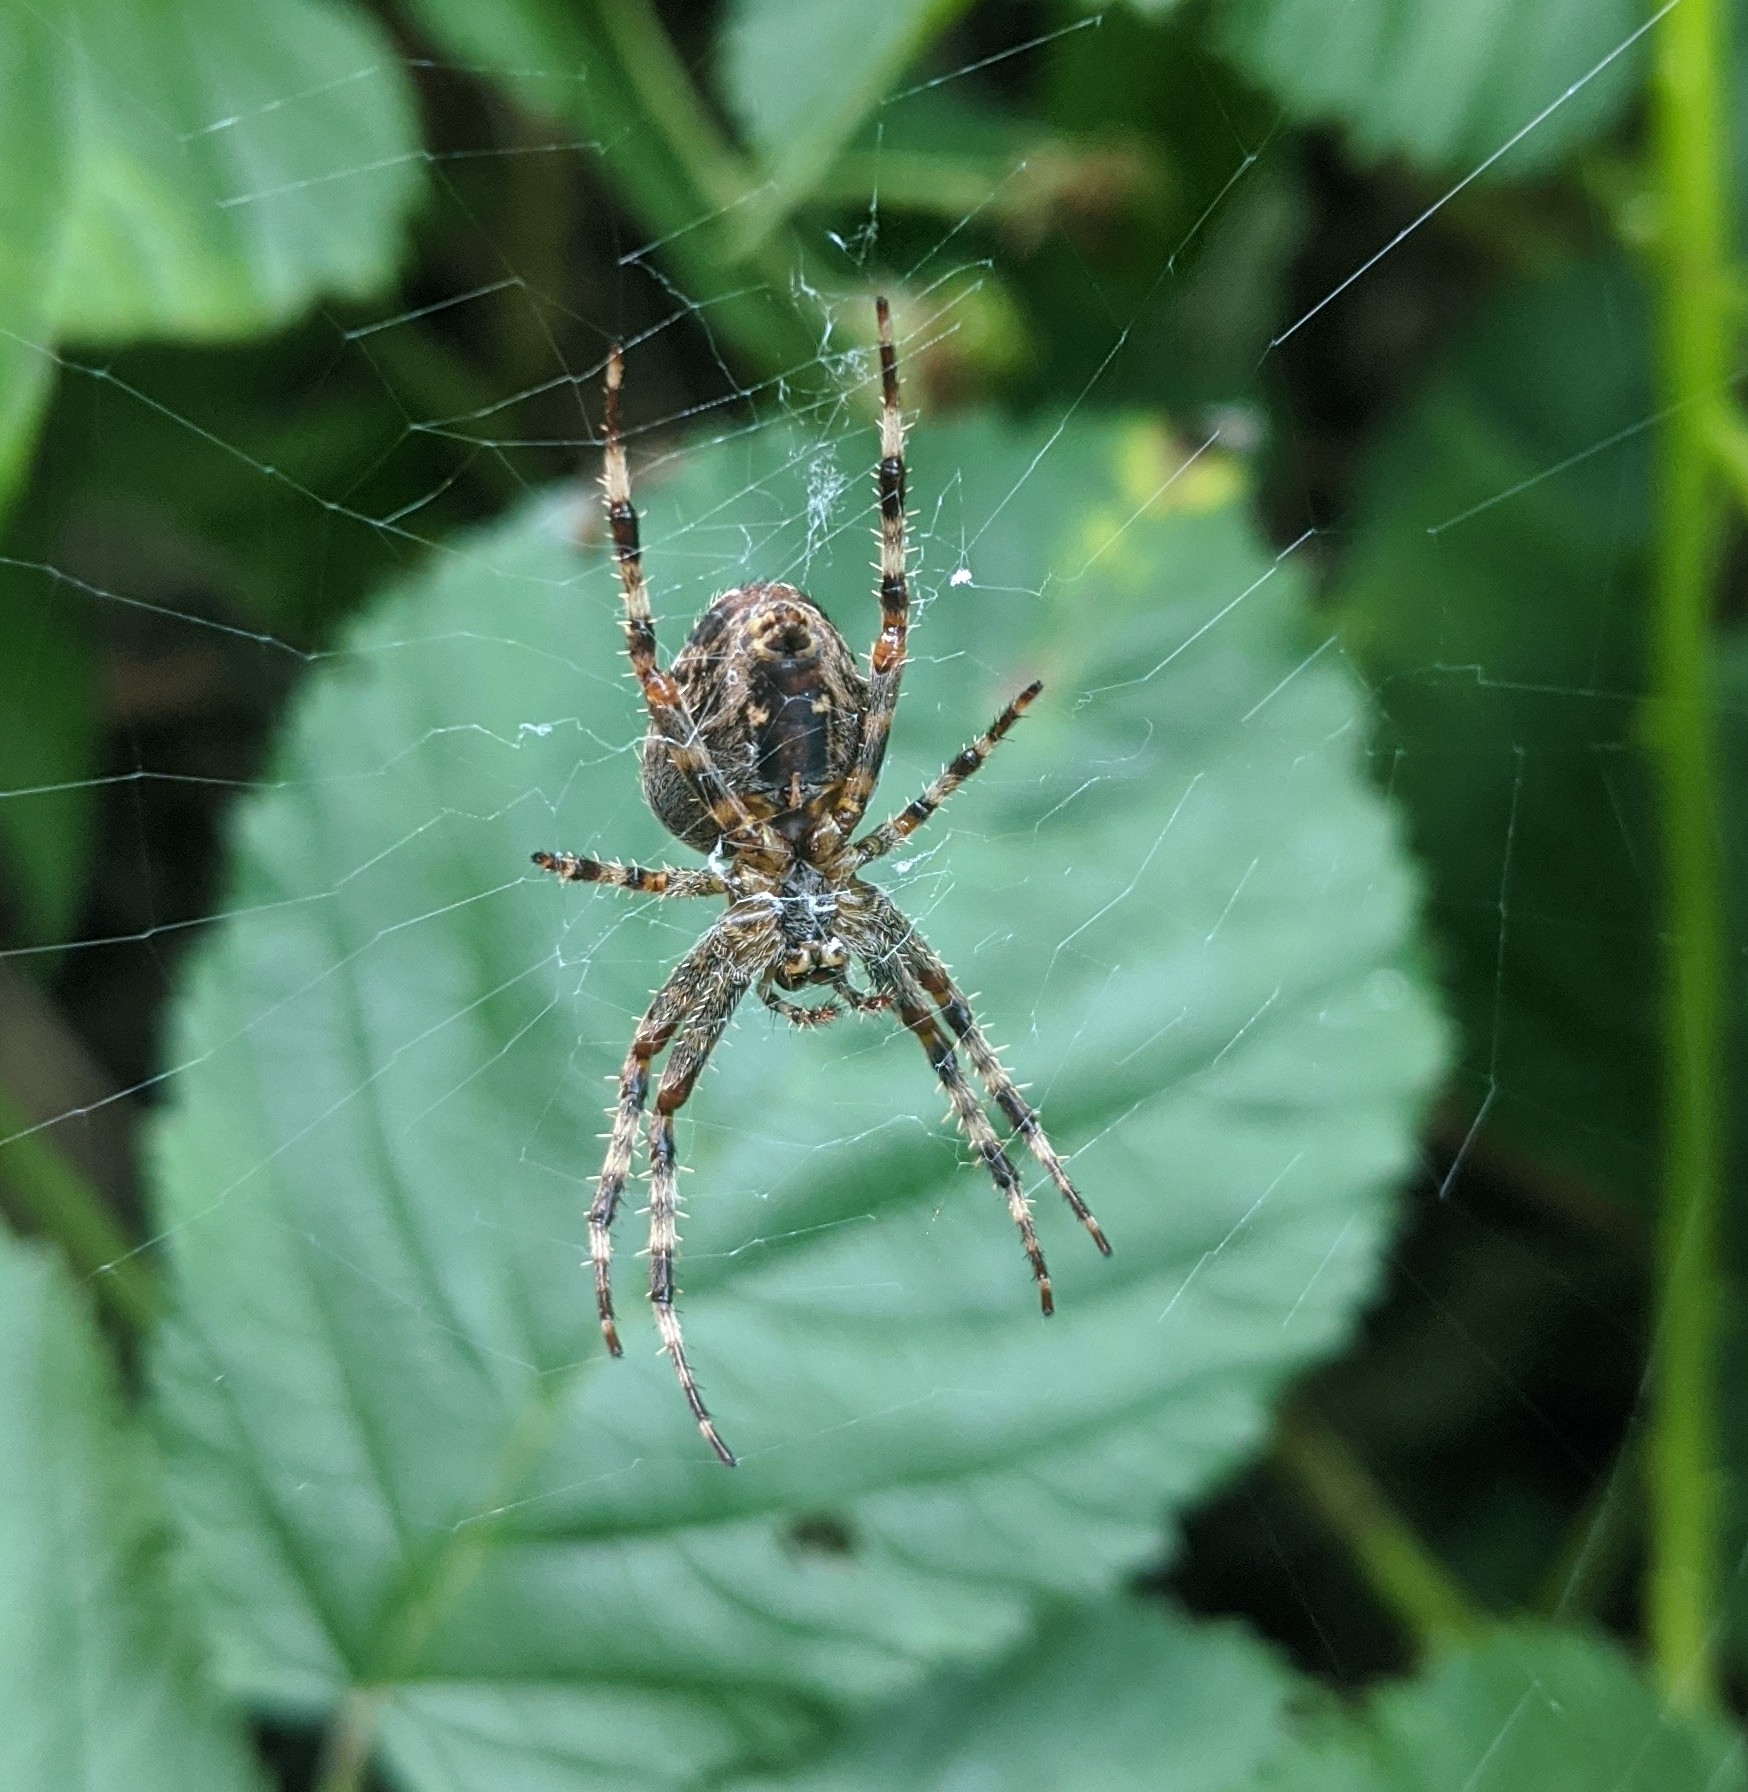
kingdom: Animalia
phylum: Arthropoda
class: Arachnida
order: Araneae
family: Araneidae
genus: Araneus
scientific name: Araneus diadematus
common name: Cross orbweaver
